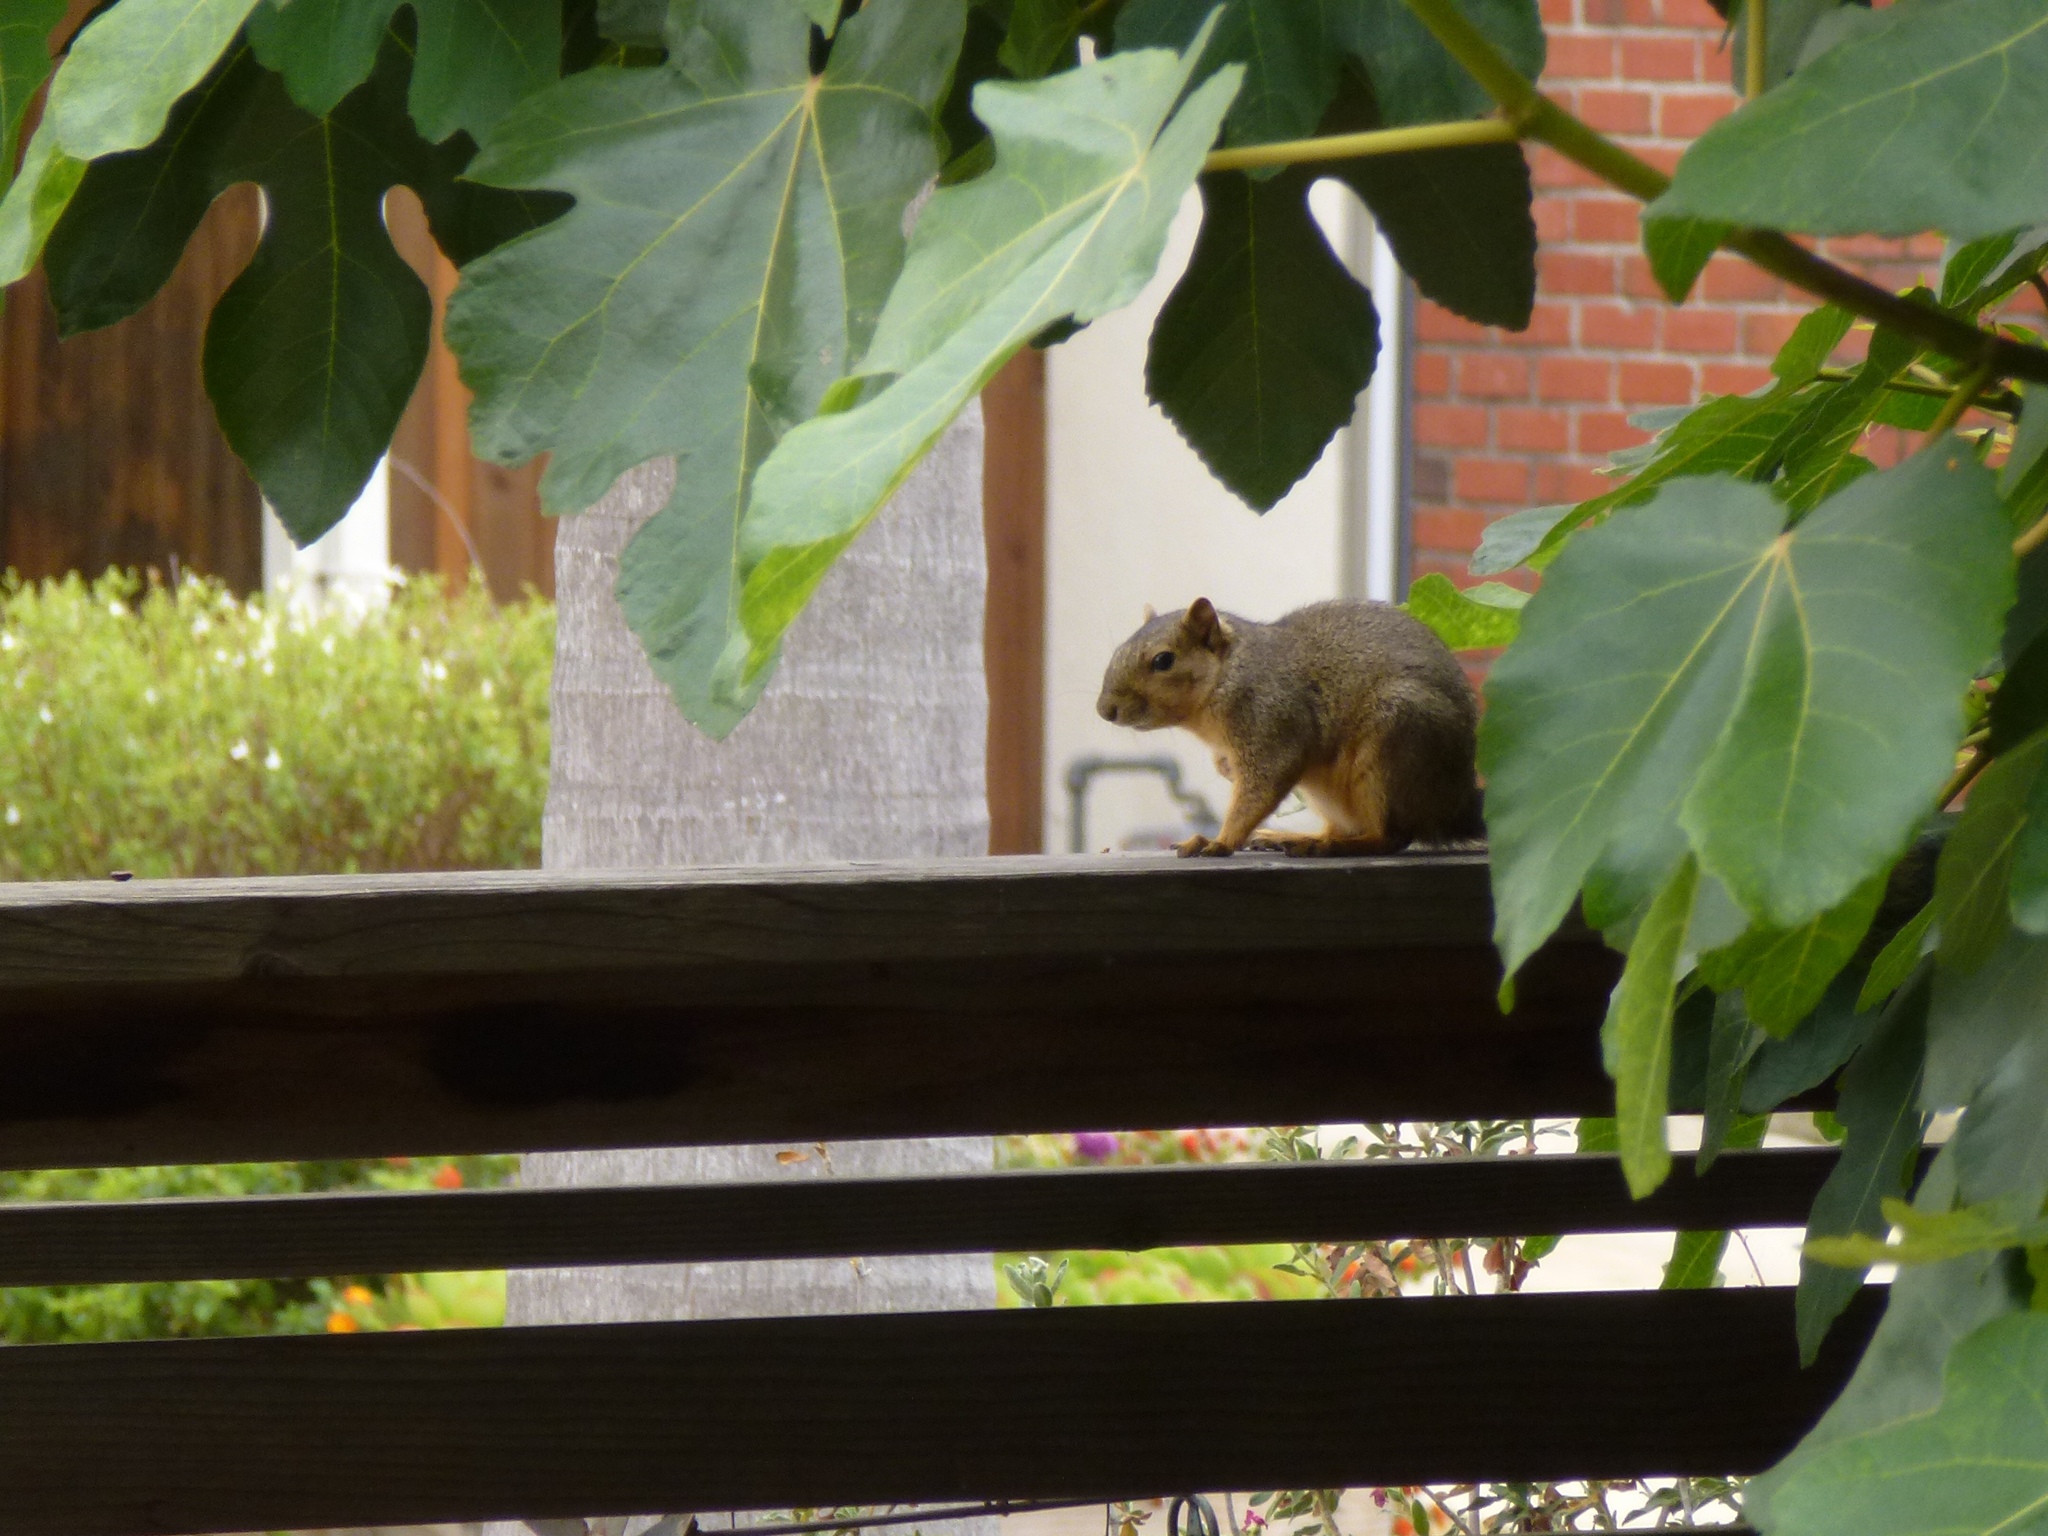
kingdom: Animalia
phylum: Chordata
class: Mammalia
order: Rodentia
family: Sciuridae
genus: Sciurus
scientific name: Sciurus niger
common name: Fox squirrel
